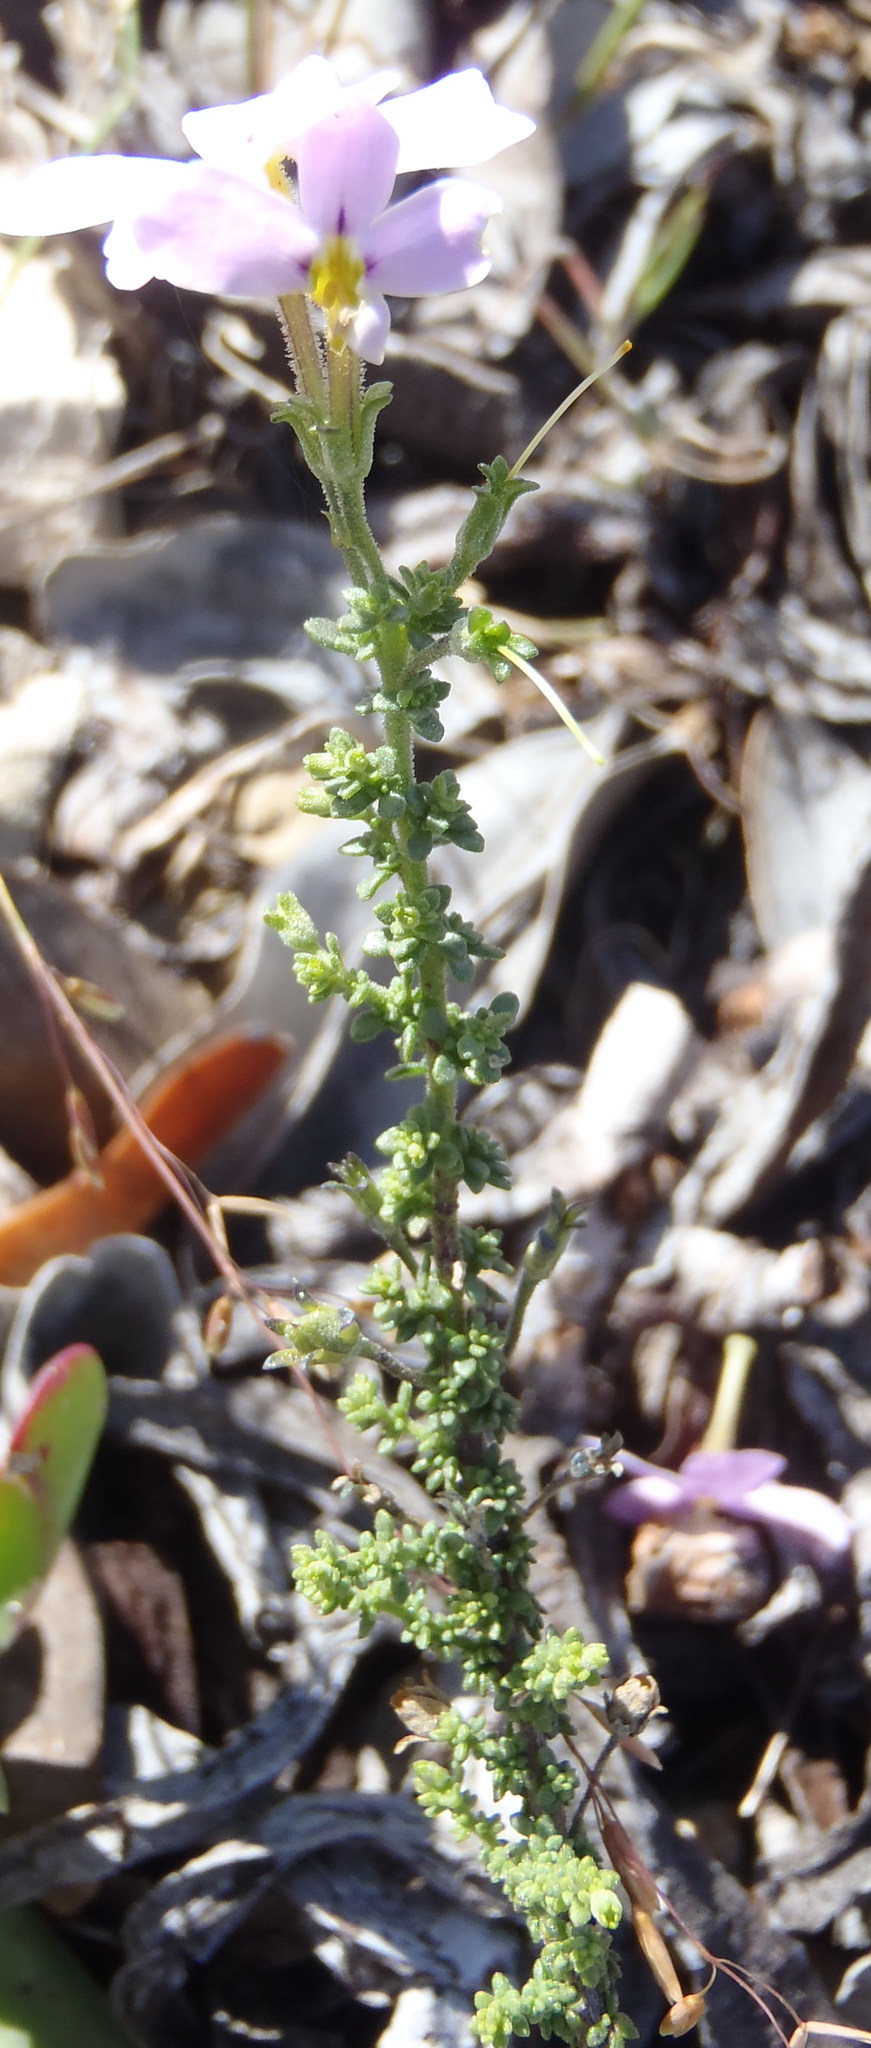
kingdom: Plantae
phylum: Tracheophyta
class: Magnoliopsida
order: Lamiales
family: Scrophulariaceae
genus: Jamesbrittenia
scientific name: Jamesbrittenia calciphila
